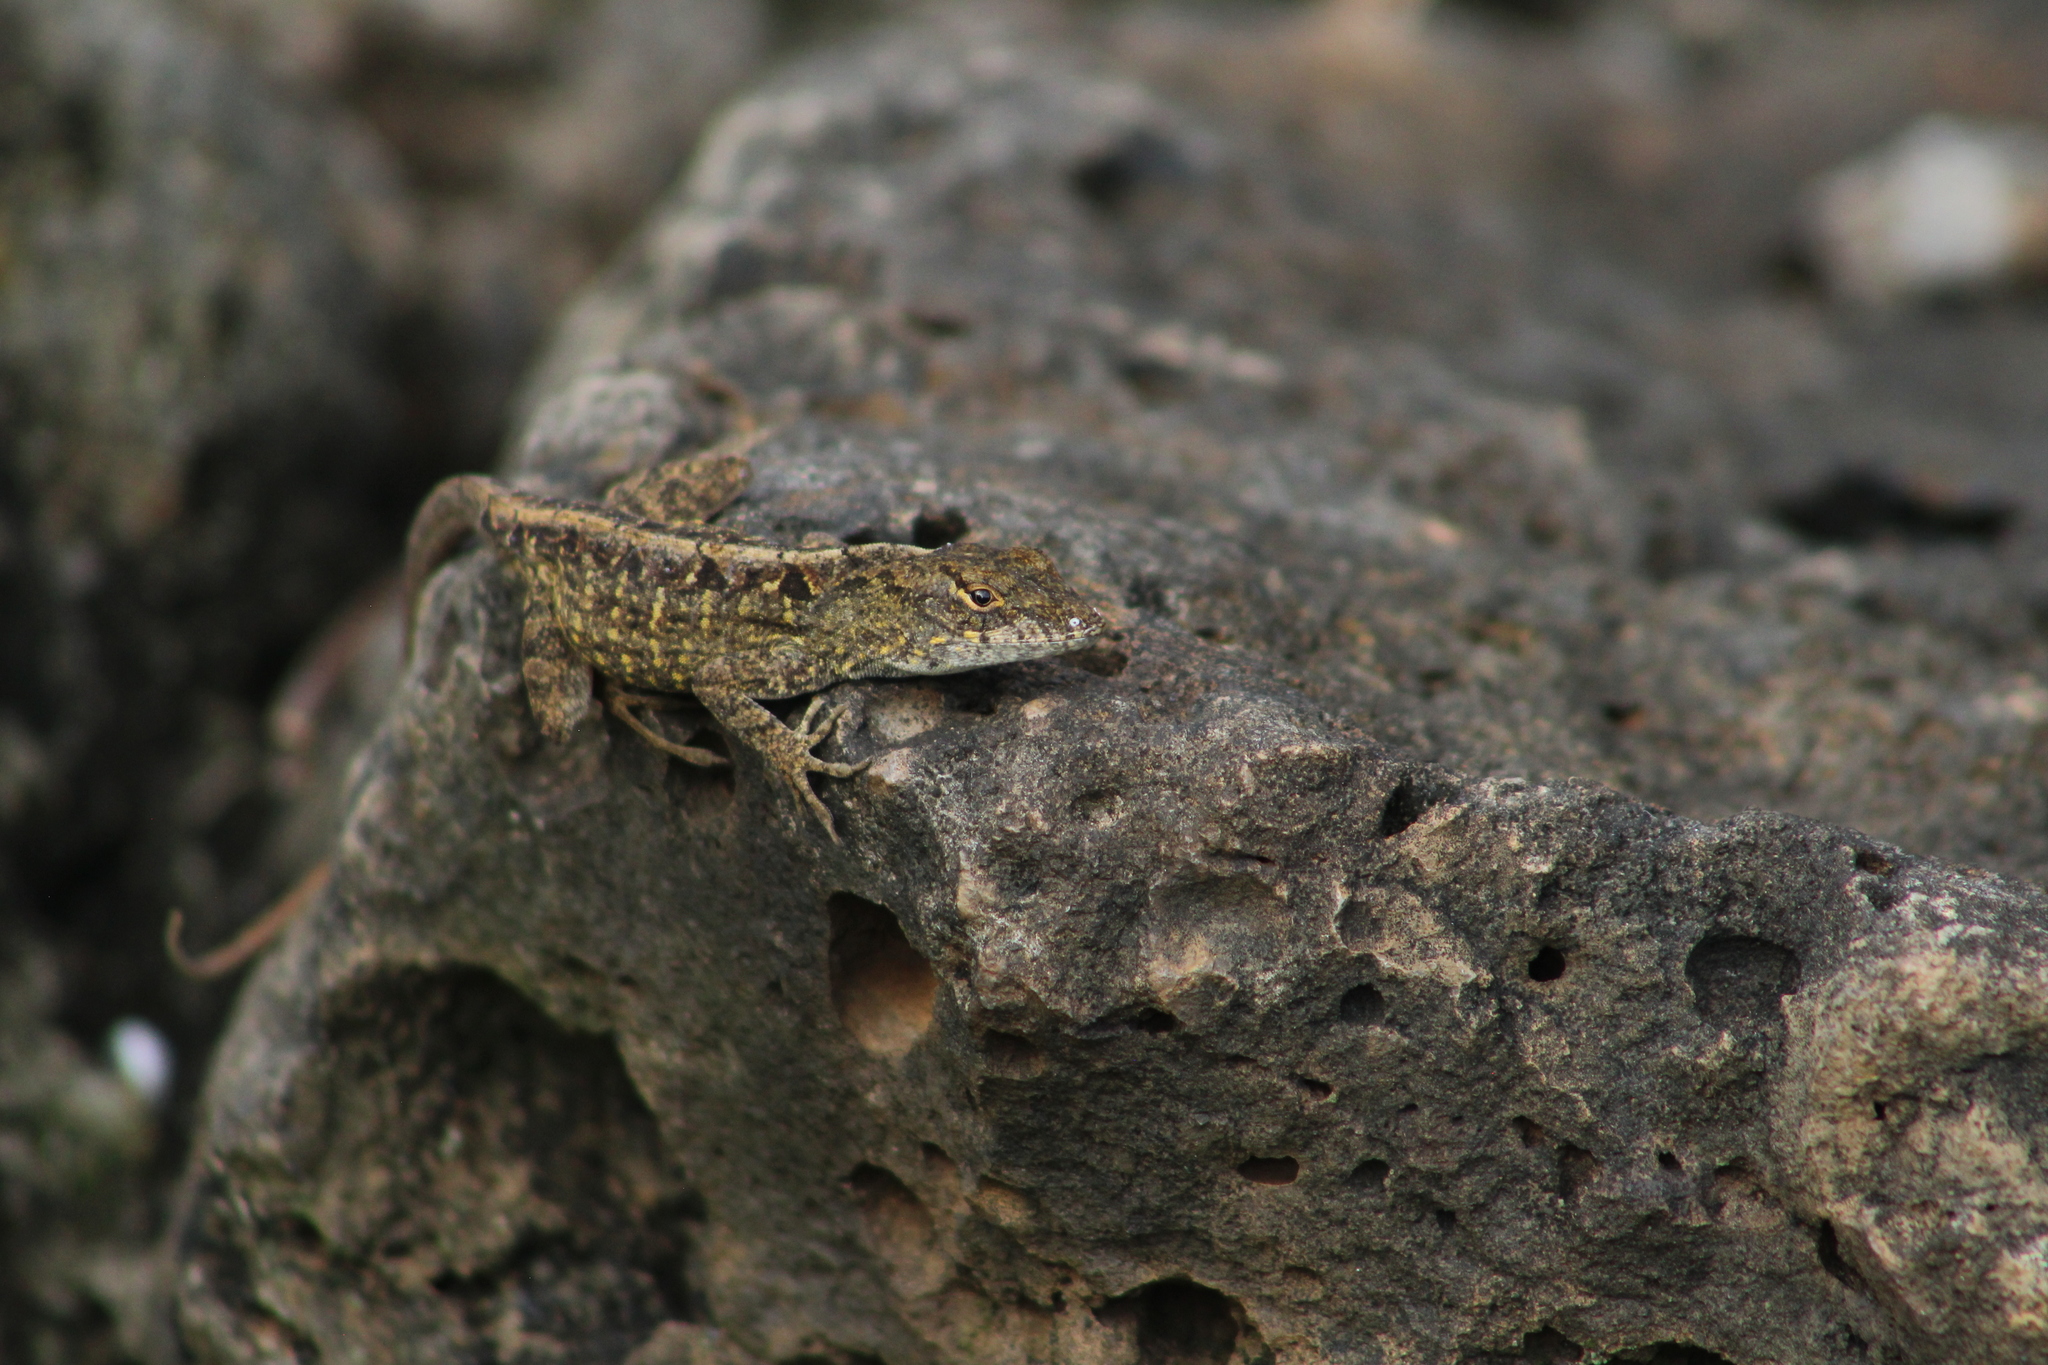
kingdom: Animalia
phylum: Chordata
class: Squamata
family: Dactyloidae
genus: Anolis
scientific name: Anolis sagrei
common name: Brown anole
